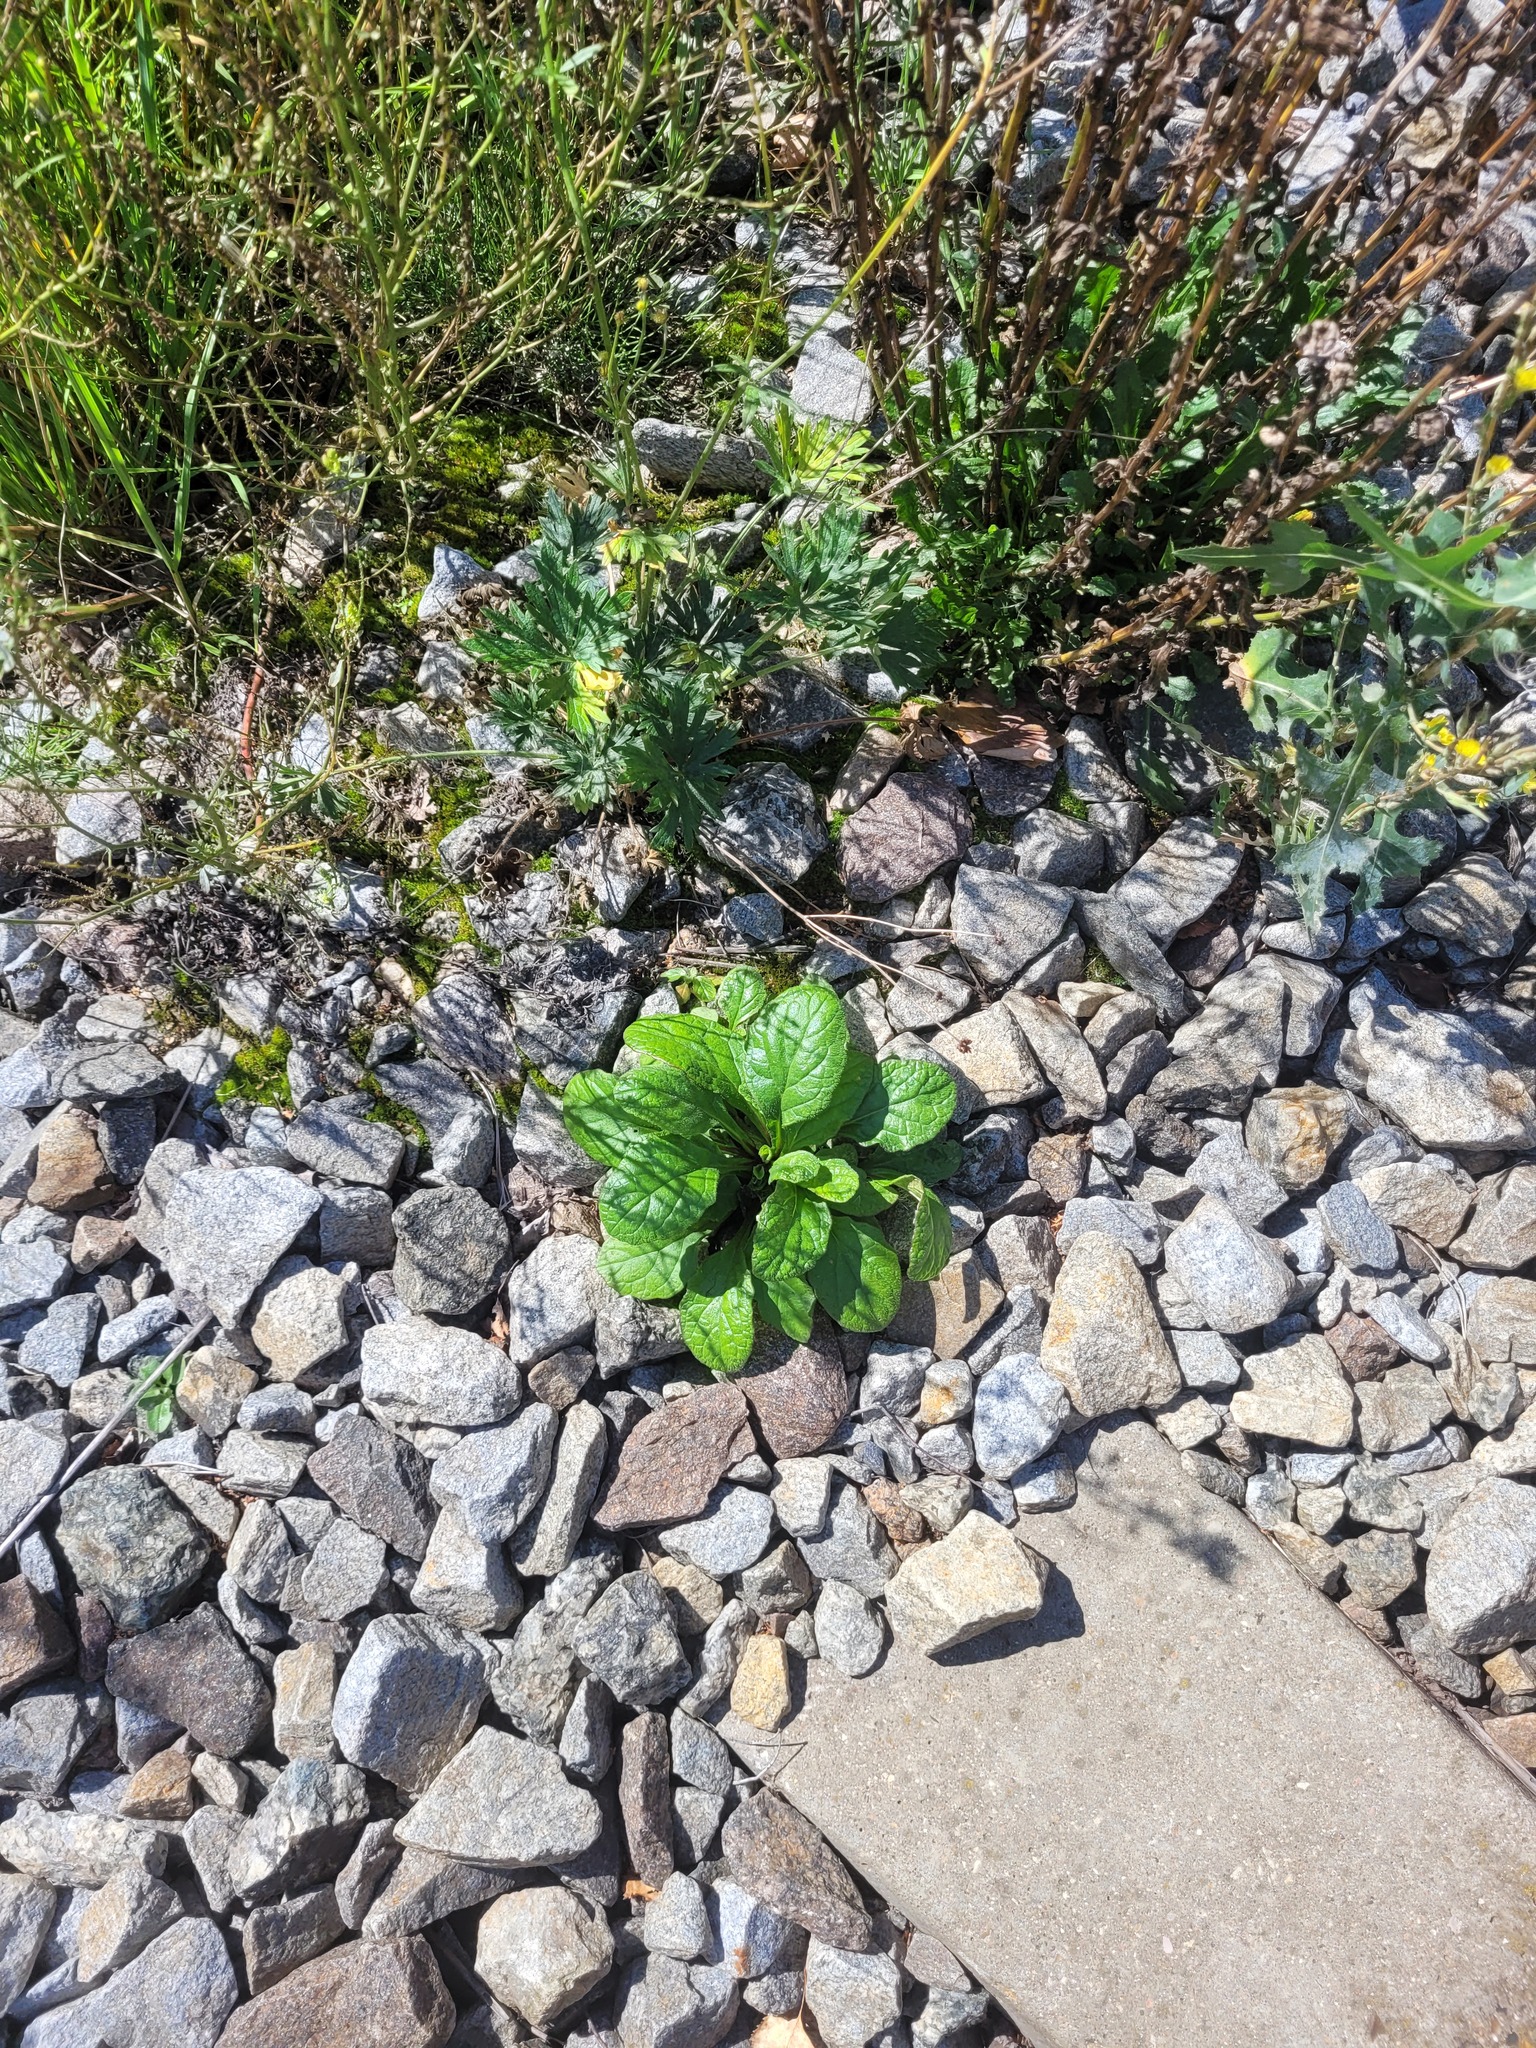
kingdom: Plantae
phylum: Tracheophyta
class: Magnoliopsida
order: Lamiales
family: Lamiaceae
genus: Ajuga
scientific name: Ajuga reptans
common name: Bugle
